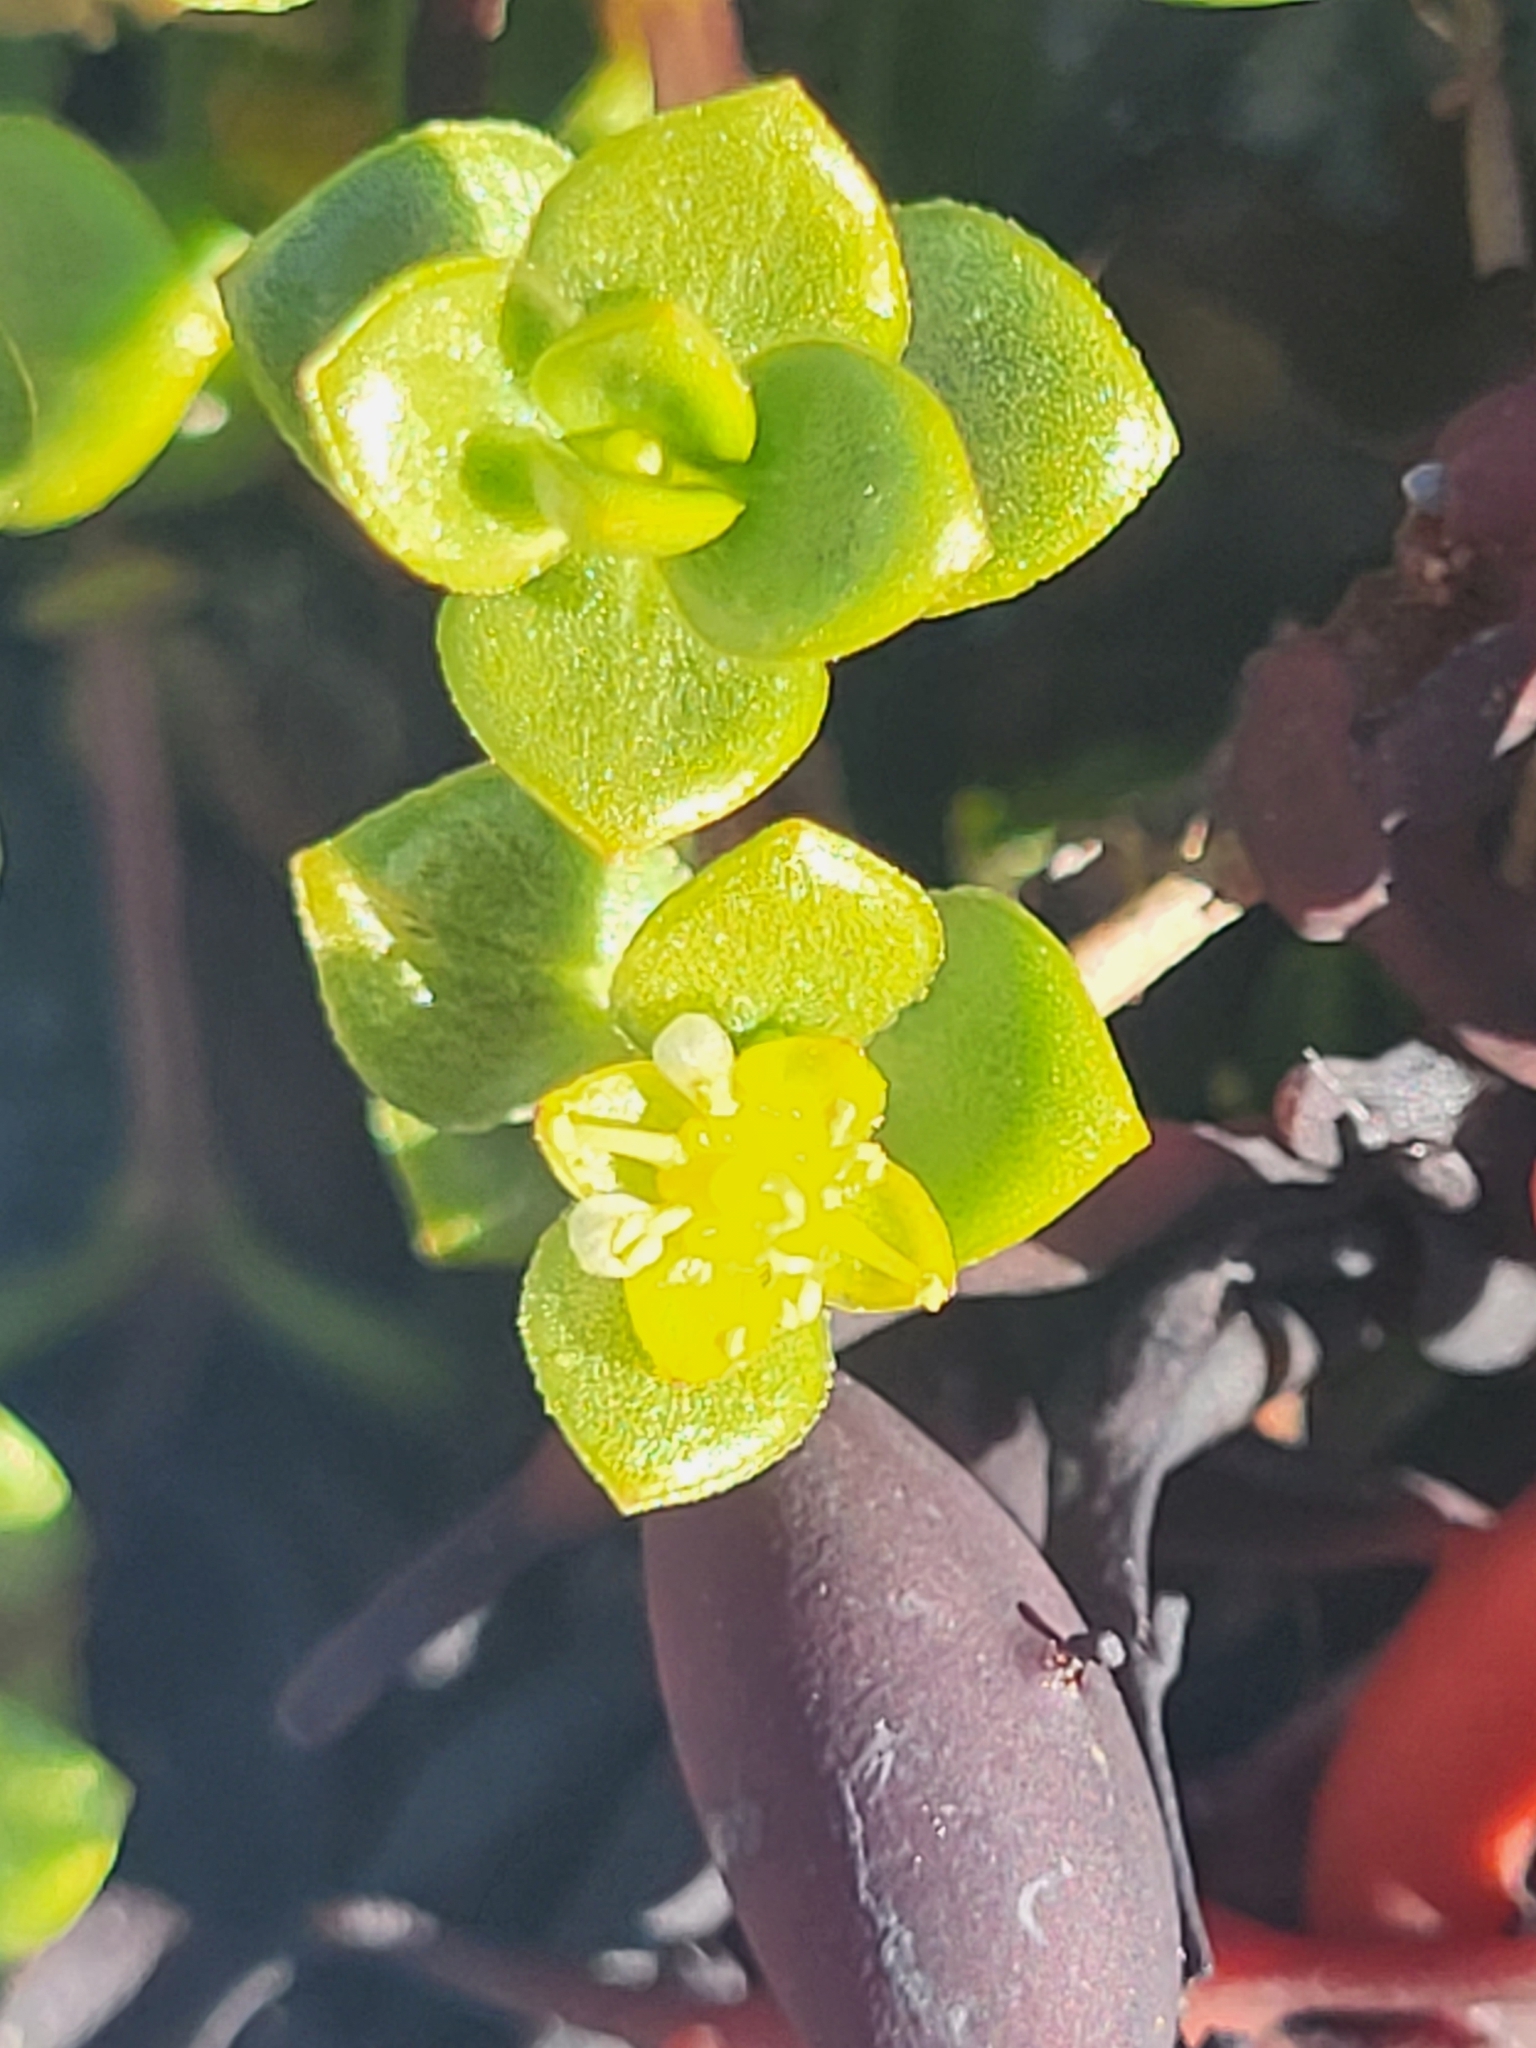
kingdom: Plantae
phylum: Tracheophyta
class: Magnoliopsida
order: Caryophyllales
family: Caryophyllaceae
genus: Honckenya
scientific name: Honckenya peploides
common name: Sea sandwort
